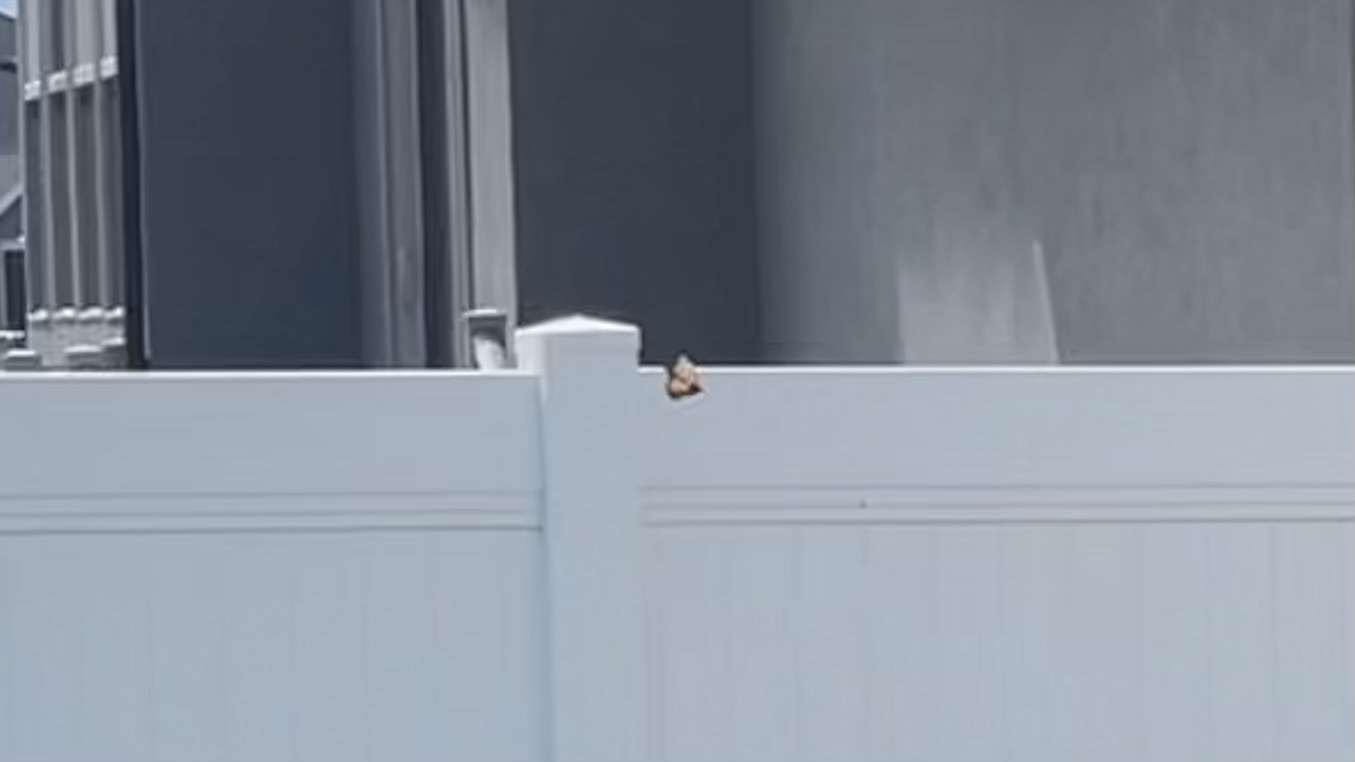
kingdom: Animalia
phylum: Arthropoda
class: Insecta
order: Lepidoptera
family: Nymphalidae
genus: Danaus
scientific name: Danaus plexippus
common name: Monarch
